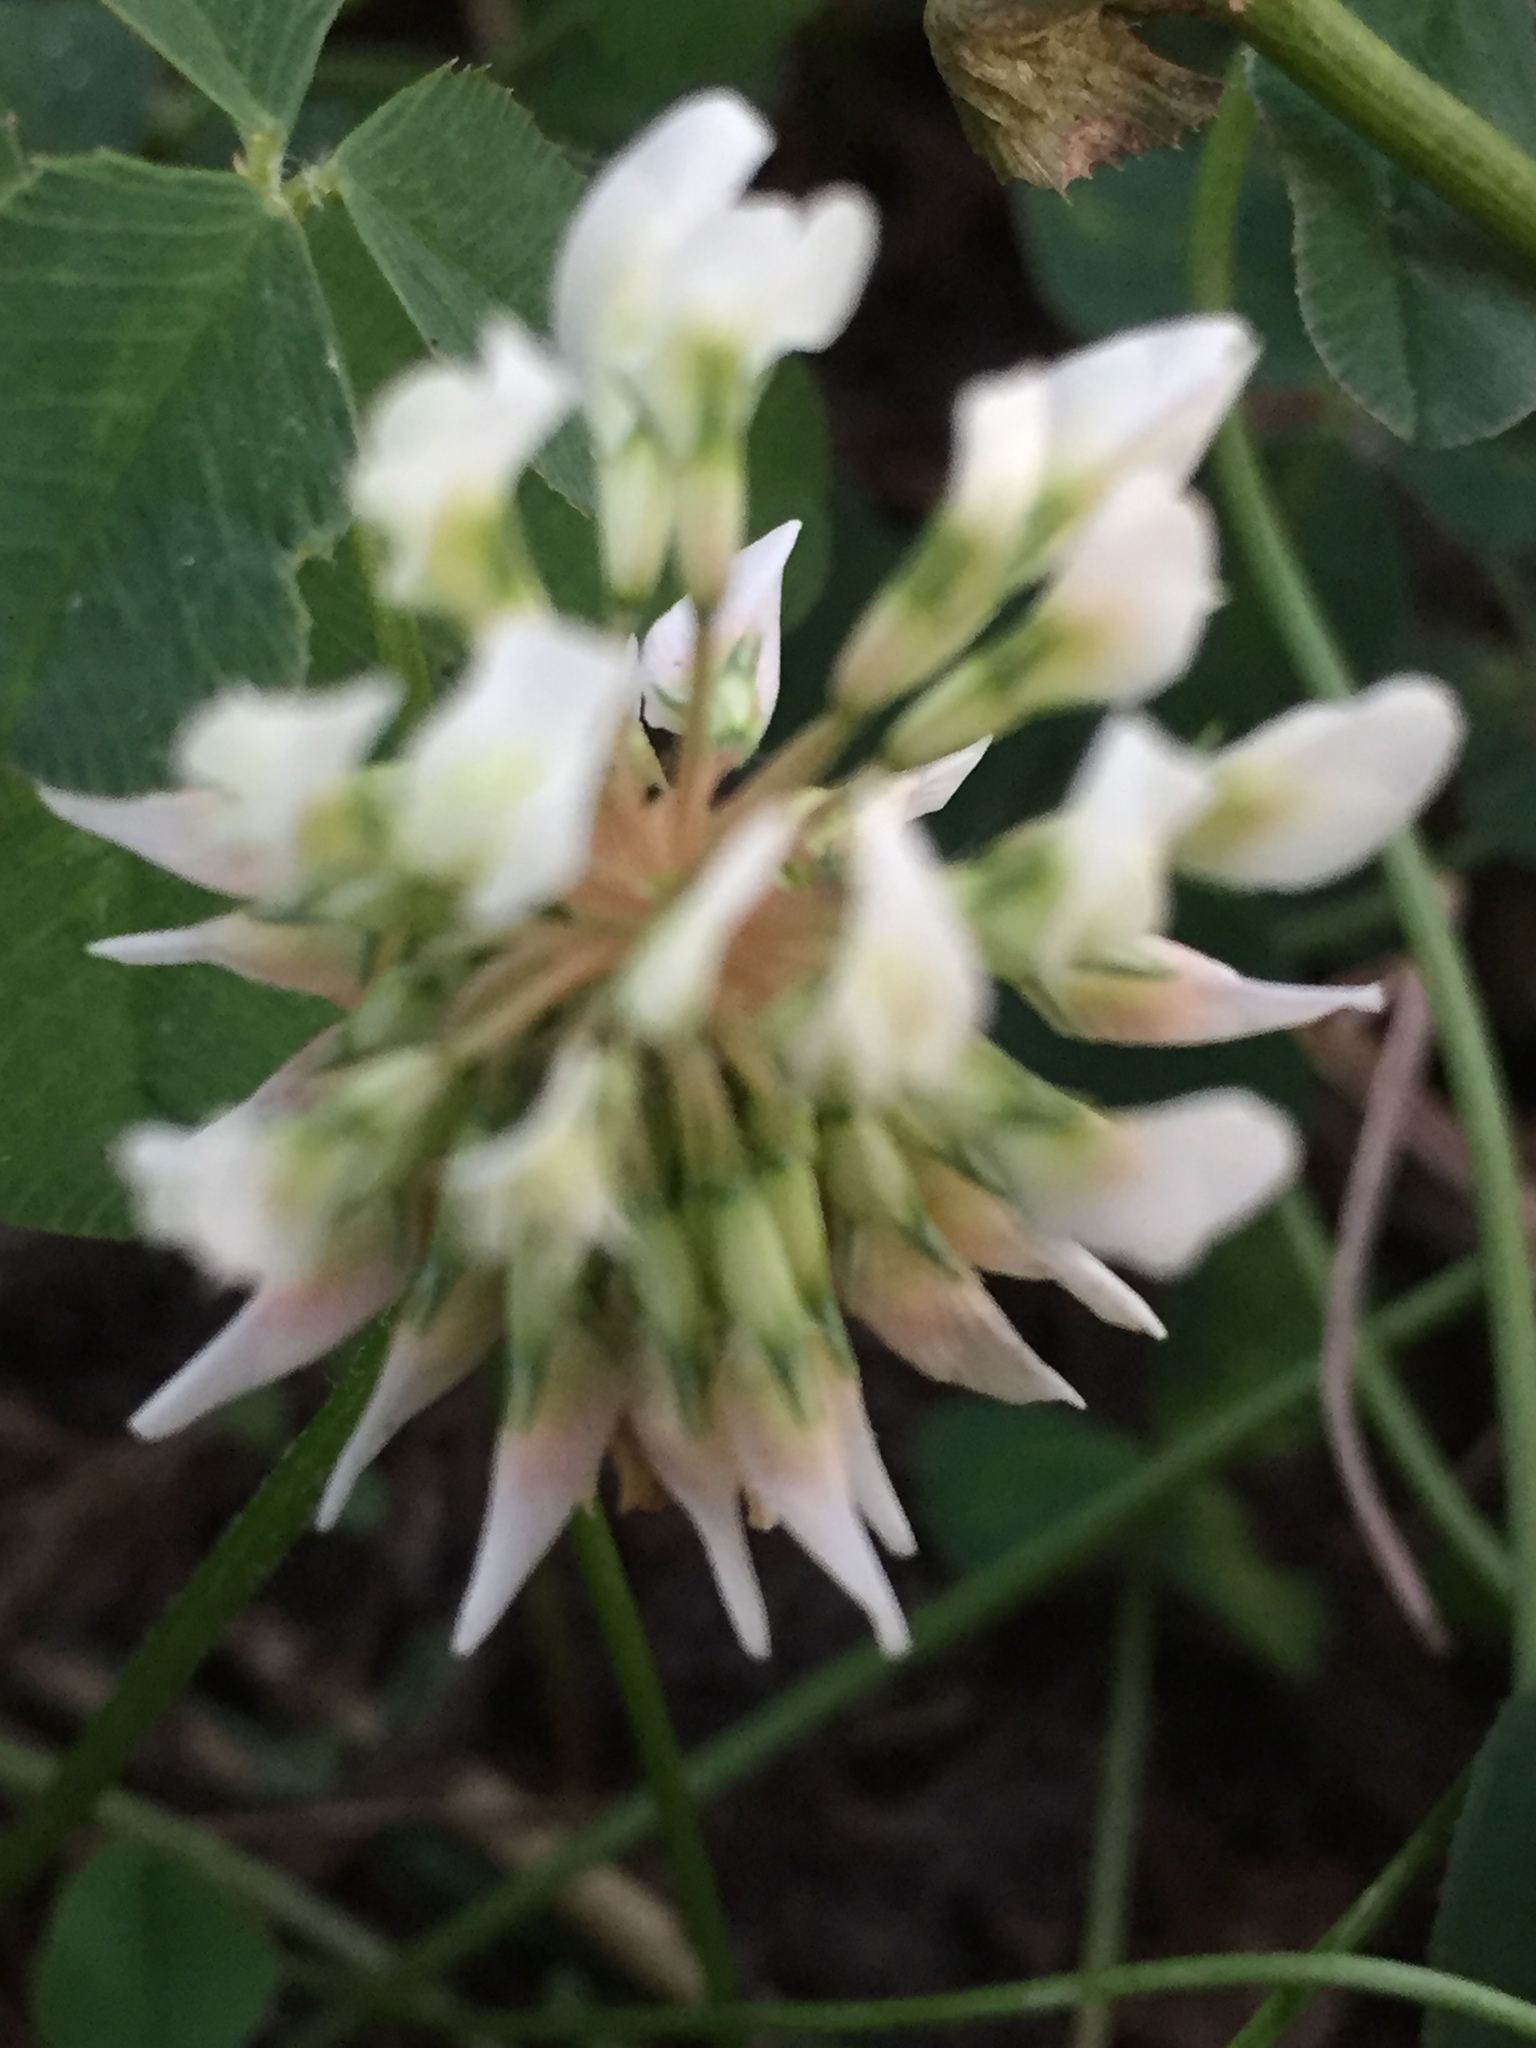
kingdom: Plantae
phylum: Tracheophyta
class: Magnoliopsida
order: Fabales
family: Fabaceae
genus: Trifolium
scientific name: Trifolium repens
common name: White clover
